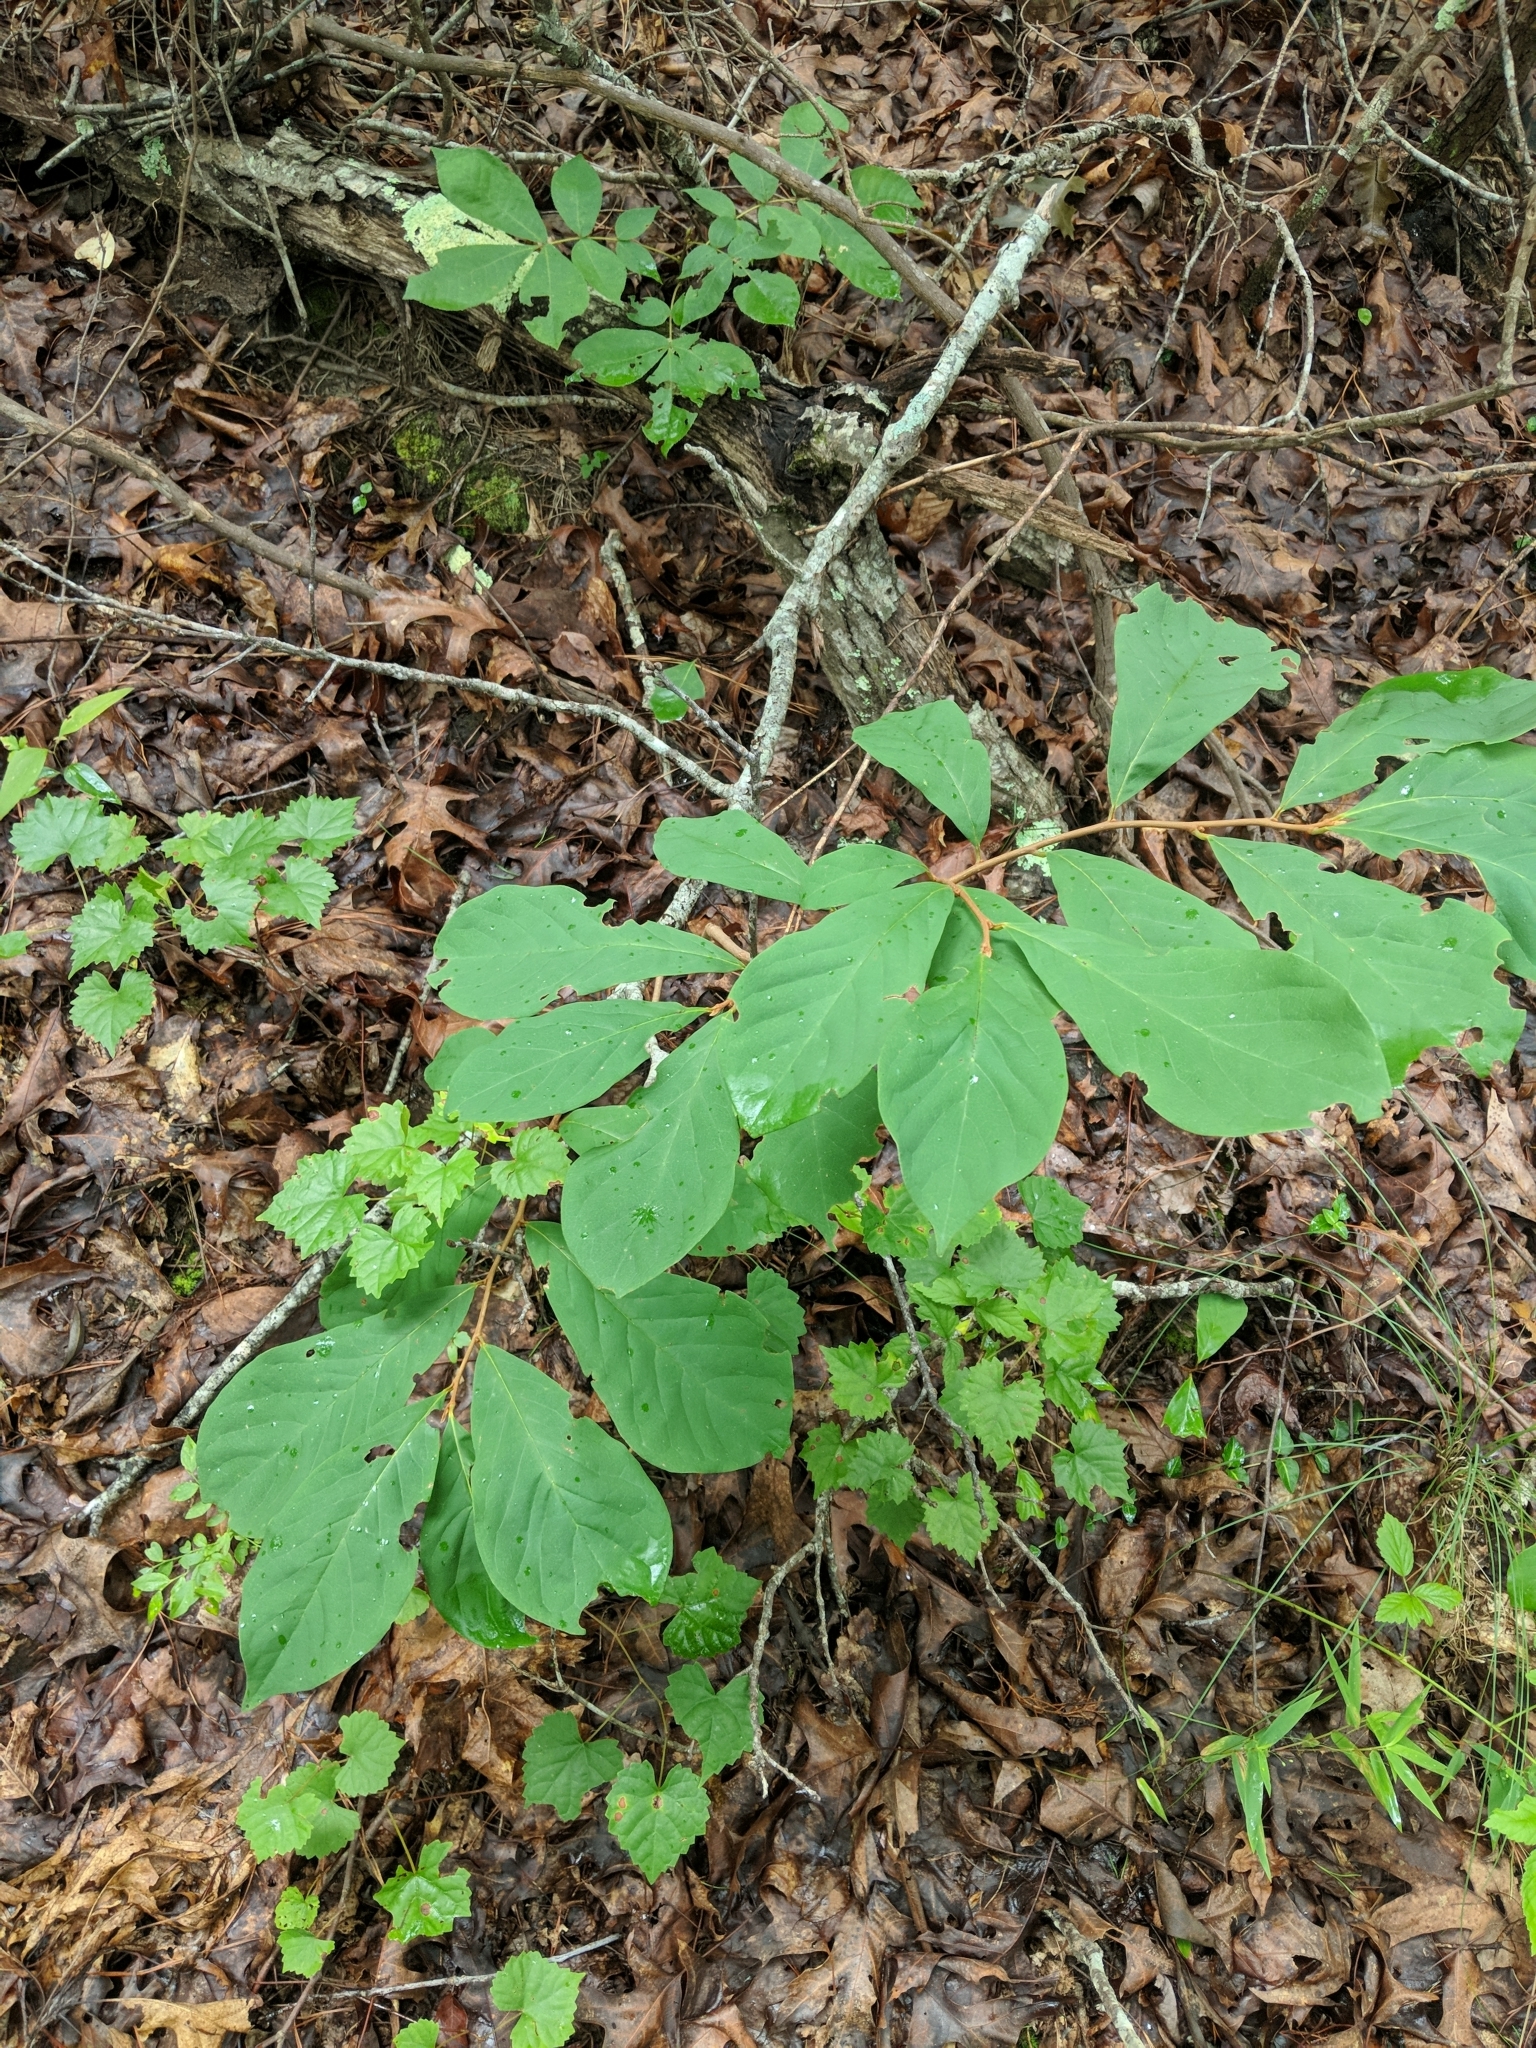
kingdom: Plantae
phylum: Tracheophyta
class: Magnoliopsida
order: Magnoliales
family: Annonaceae
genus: Asimina
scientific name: Asimina parviflora
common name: Dwarf pawpaw
